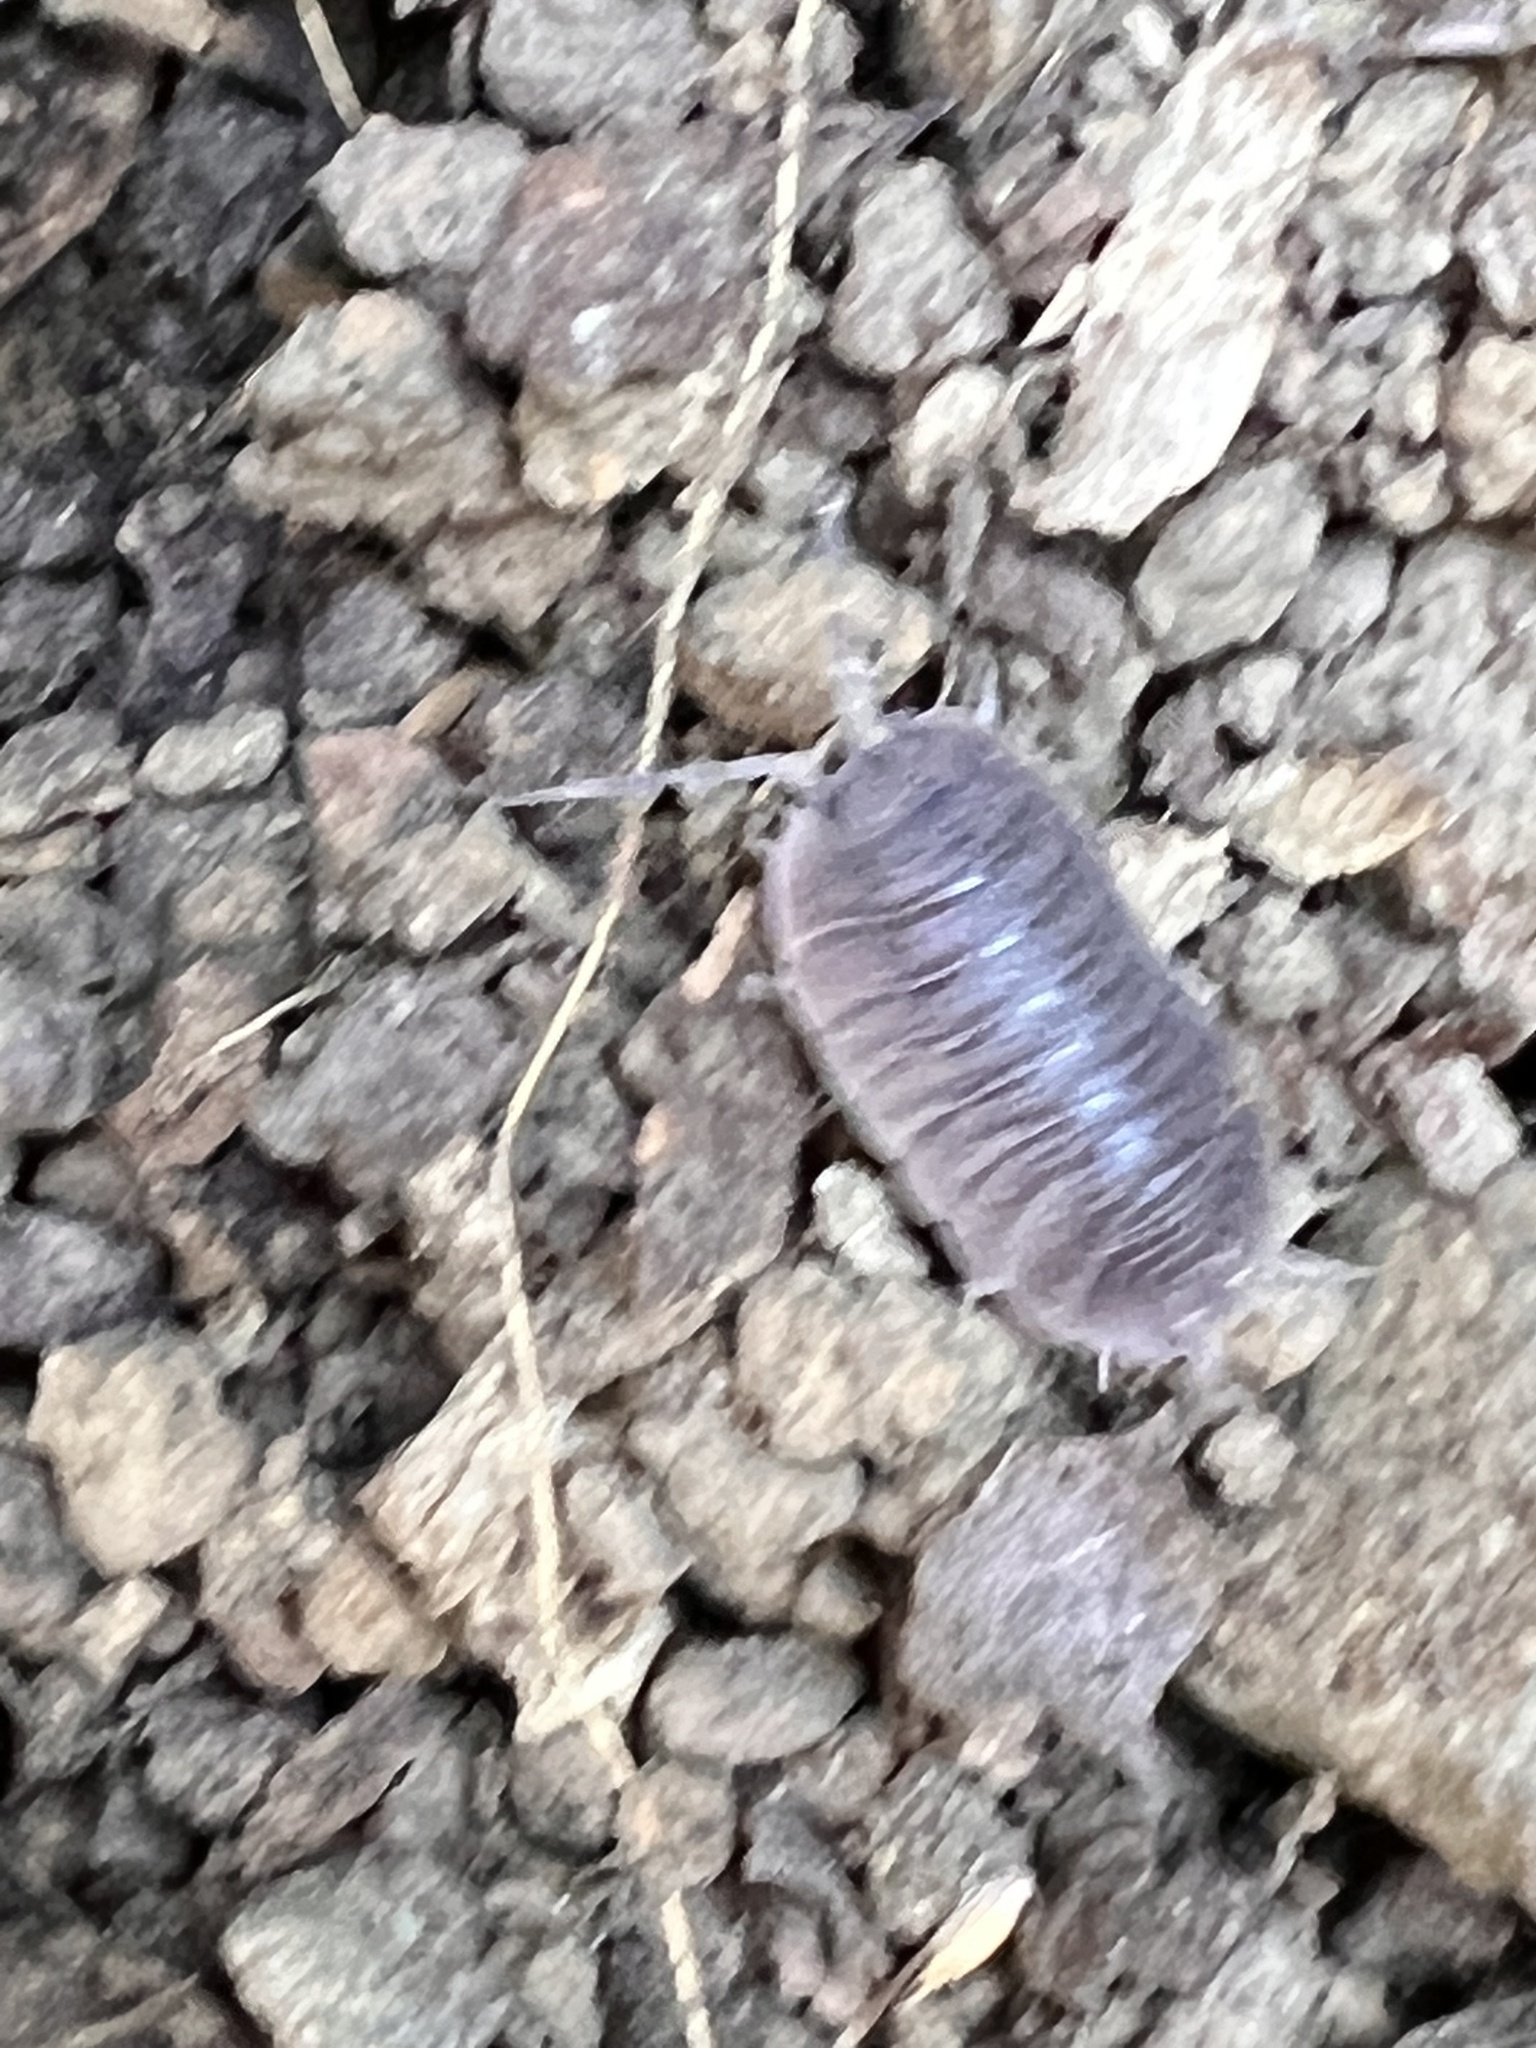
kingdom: Animalia
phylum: Arthropoda
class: Malacostraca
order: Isopoda
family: Porcellionidae
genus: Porcellio
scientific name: Porcellio dilatatus
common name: Isopod
